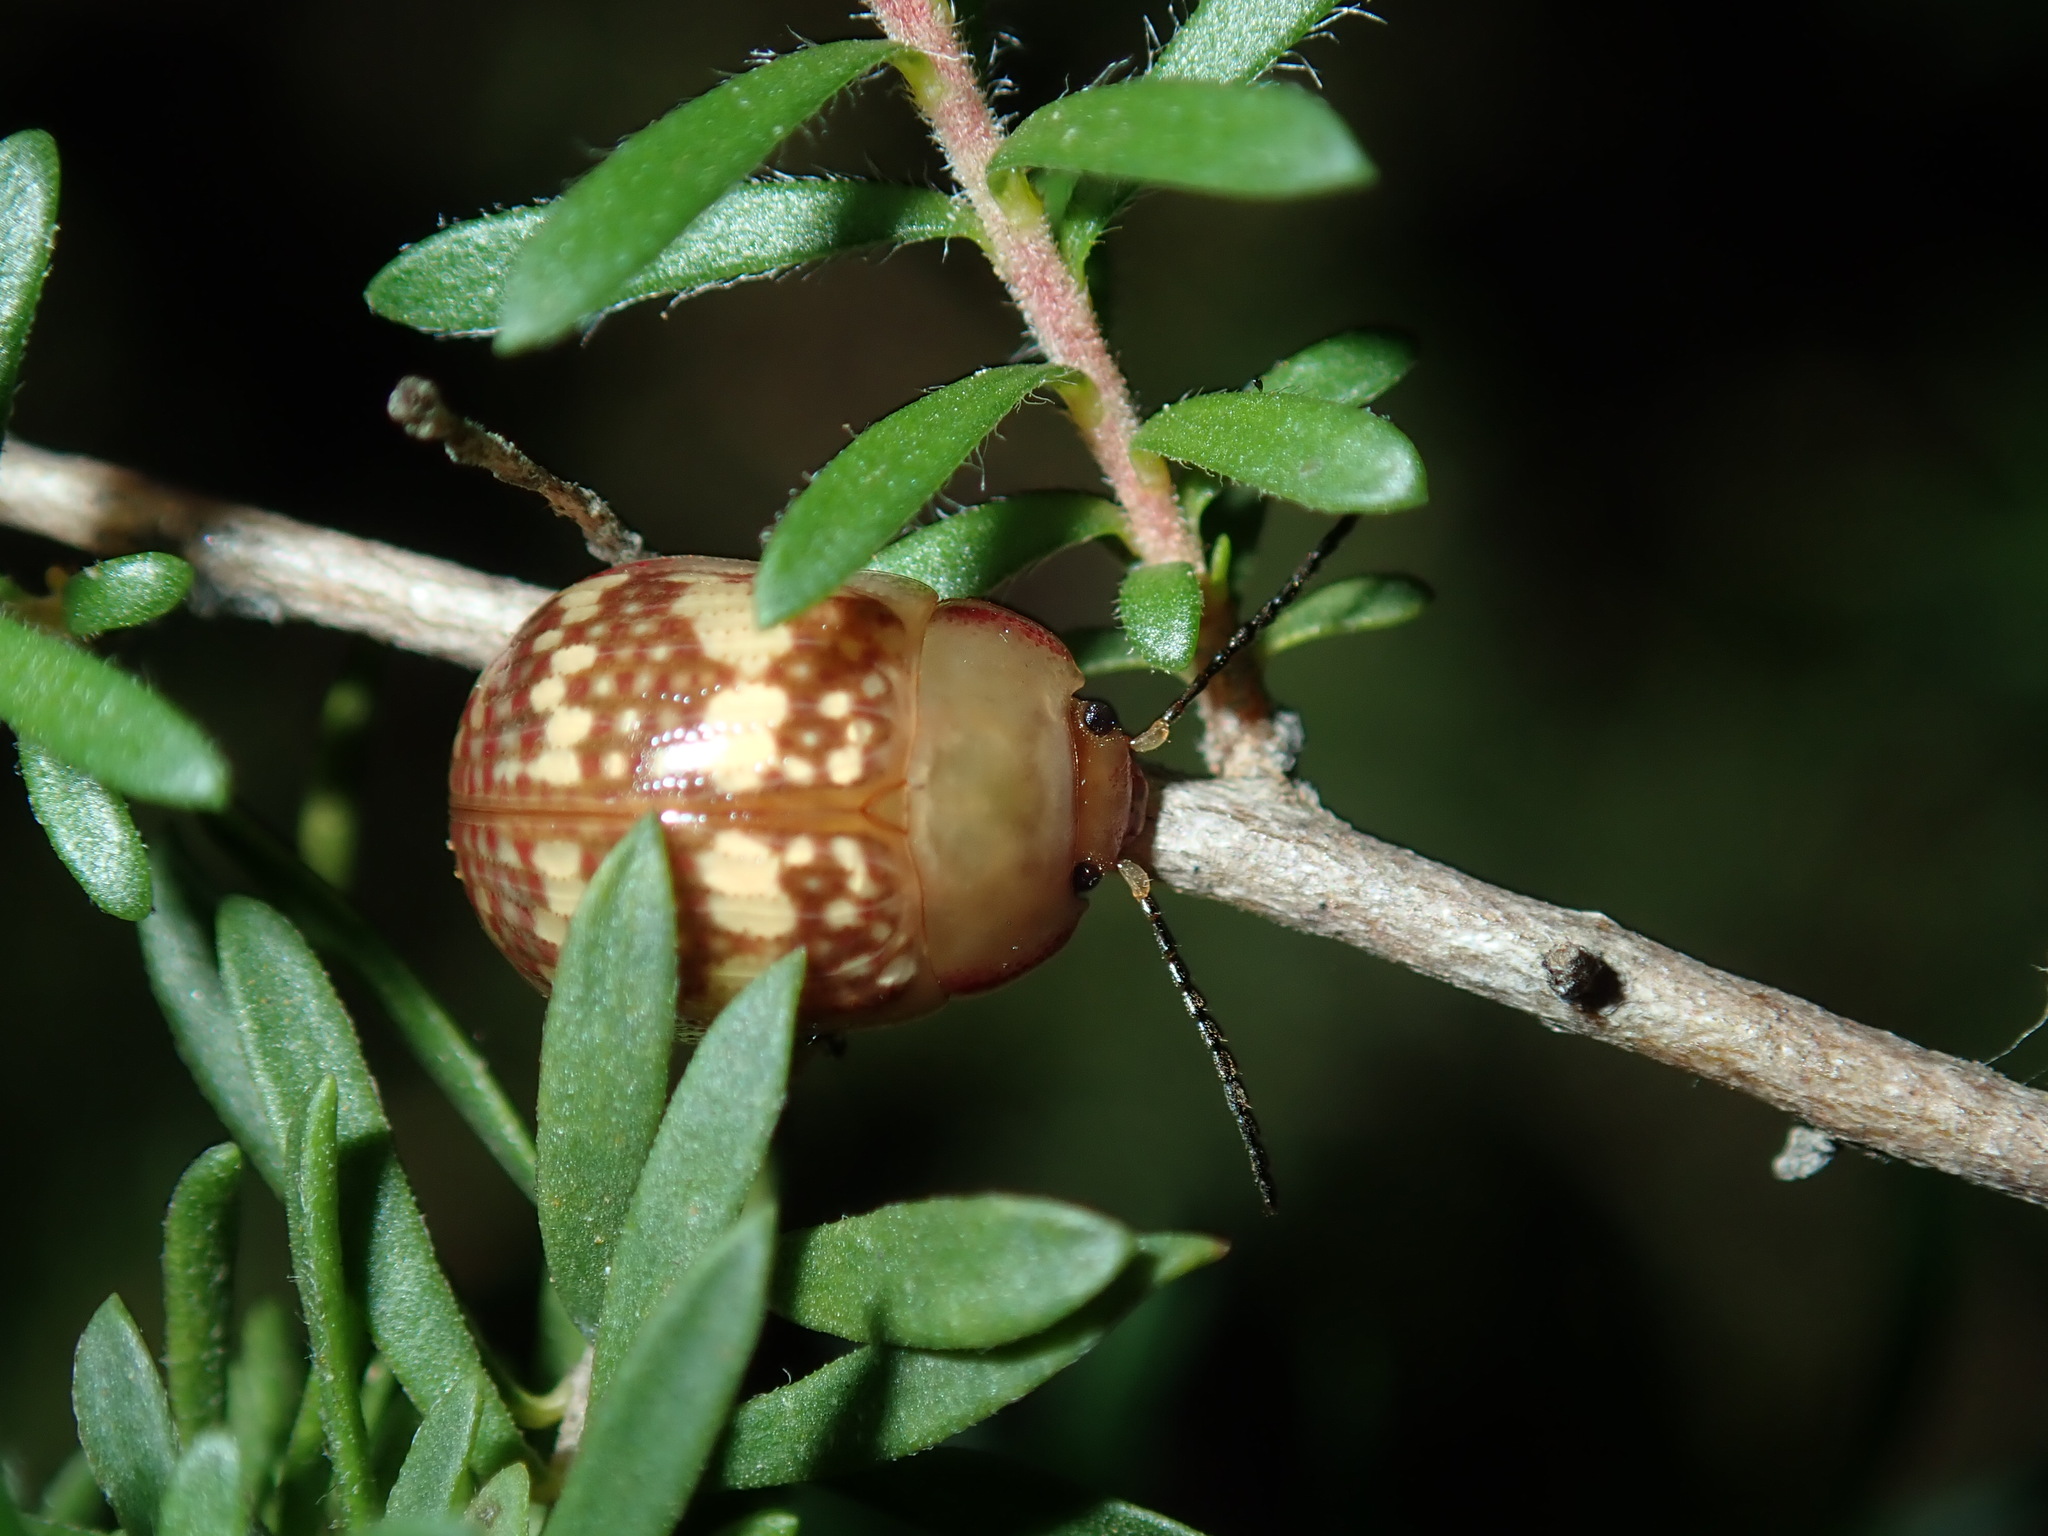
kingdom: Animalia
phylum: Arthropoda
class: Insecta
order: Coleoptera
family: Chrysomelidae
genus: Paropsis
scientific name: Paropsis
